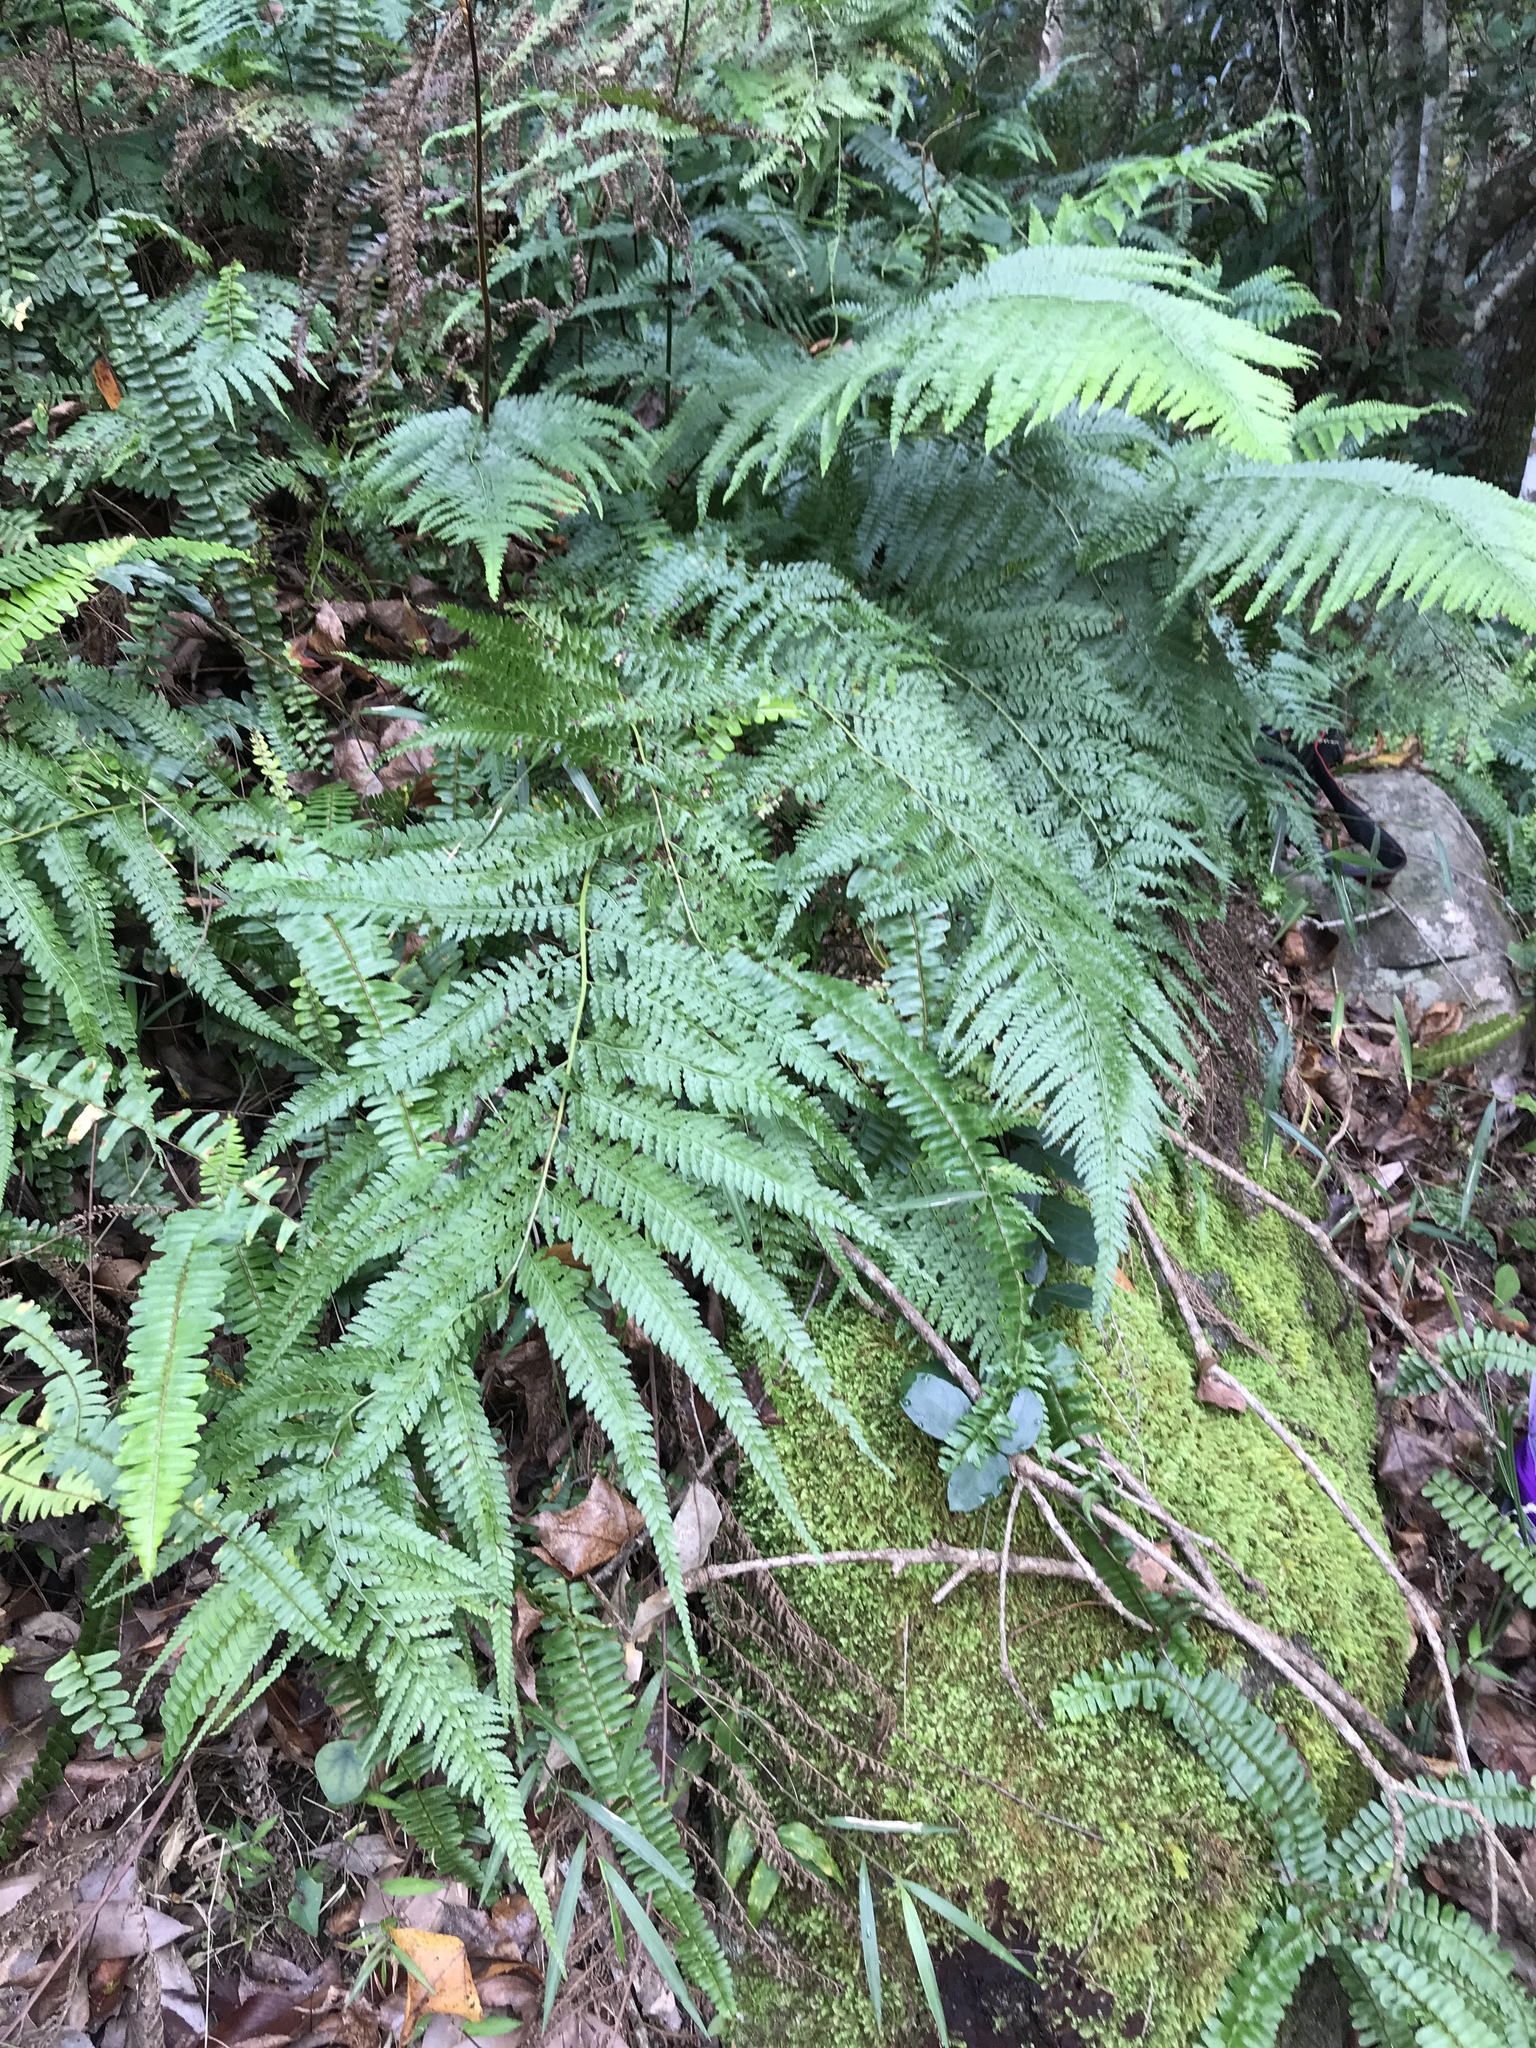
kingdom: Plantae
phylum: Tracheophyta
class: Polypodiopsida
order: Polypodiales
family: Dennstaedtiaceae
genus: Microlepia
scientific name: Microlepia strigosa
